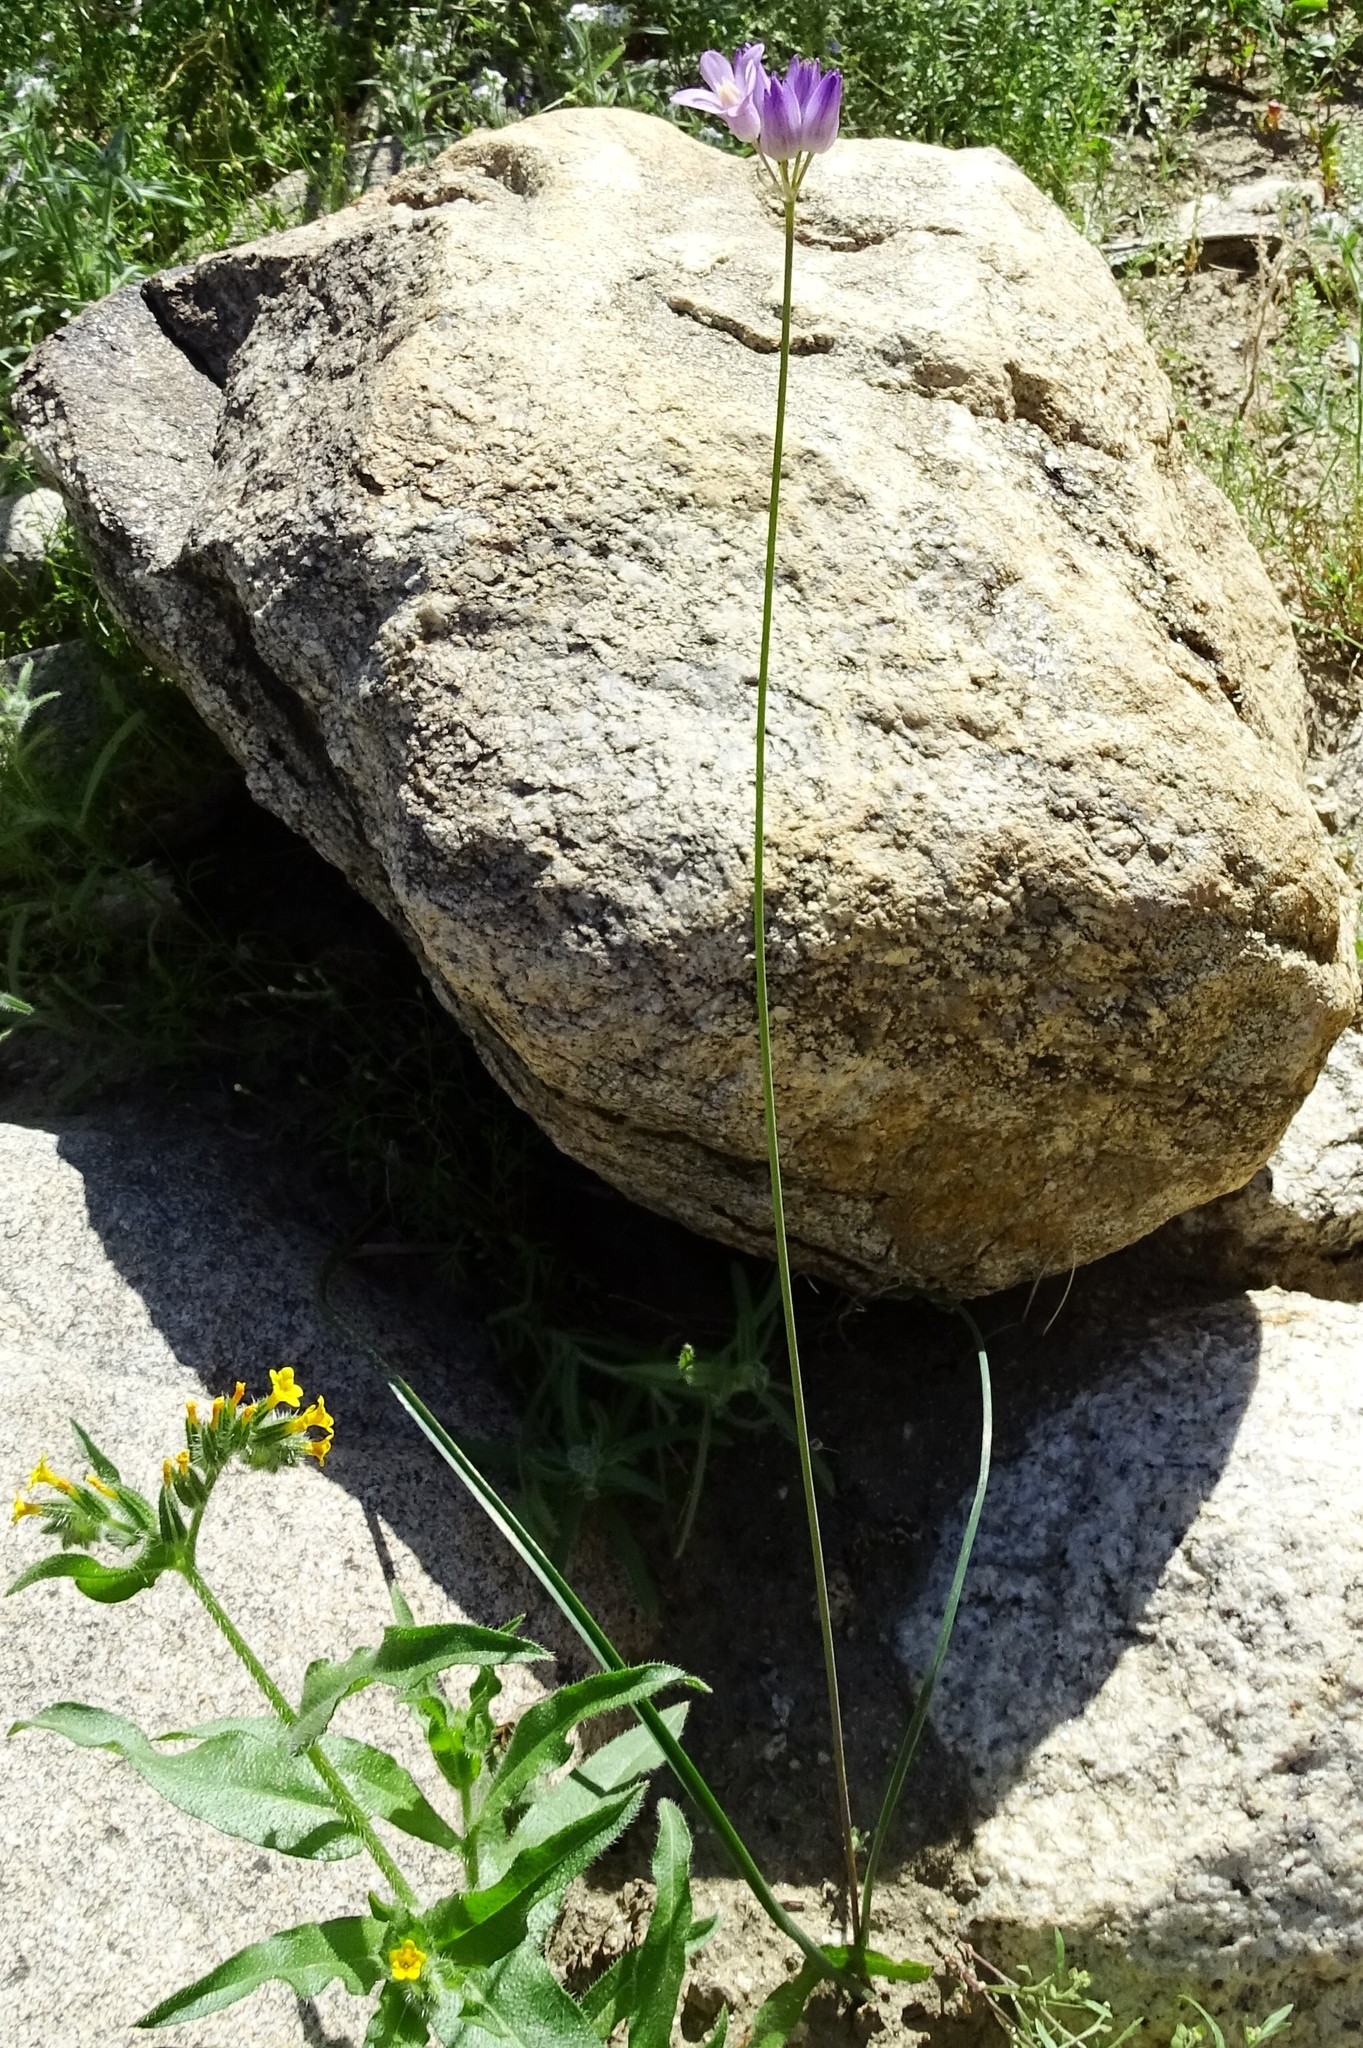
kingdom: Plantae
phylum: Tracheophyta
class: Liliopsida
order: Asparagales
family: Asparagaceae
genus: Dipterostemon
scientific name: Dipterostemon capitatus
